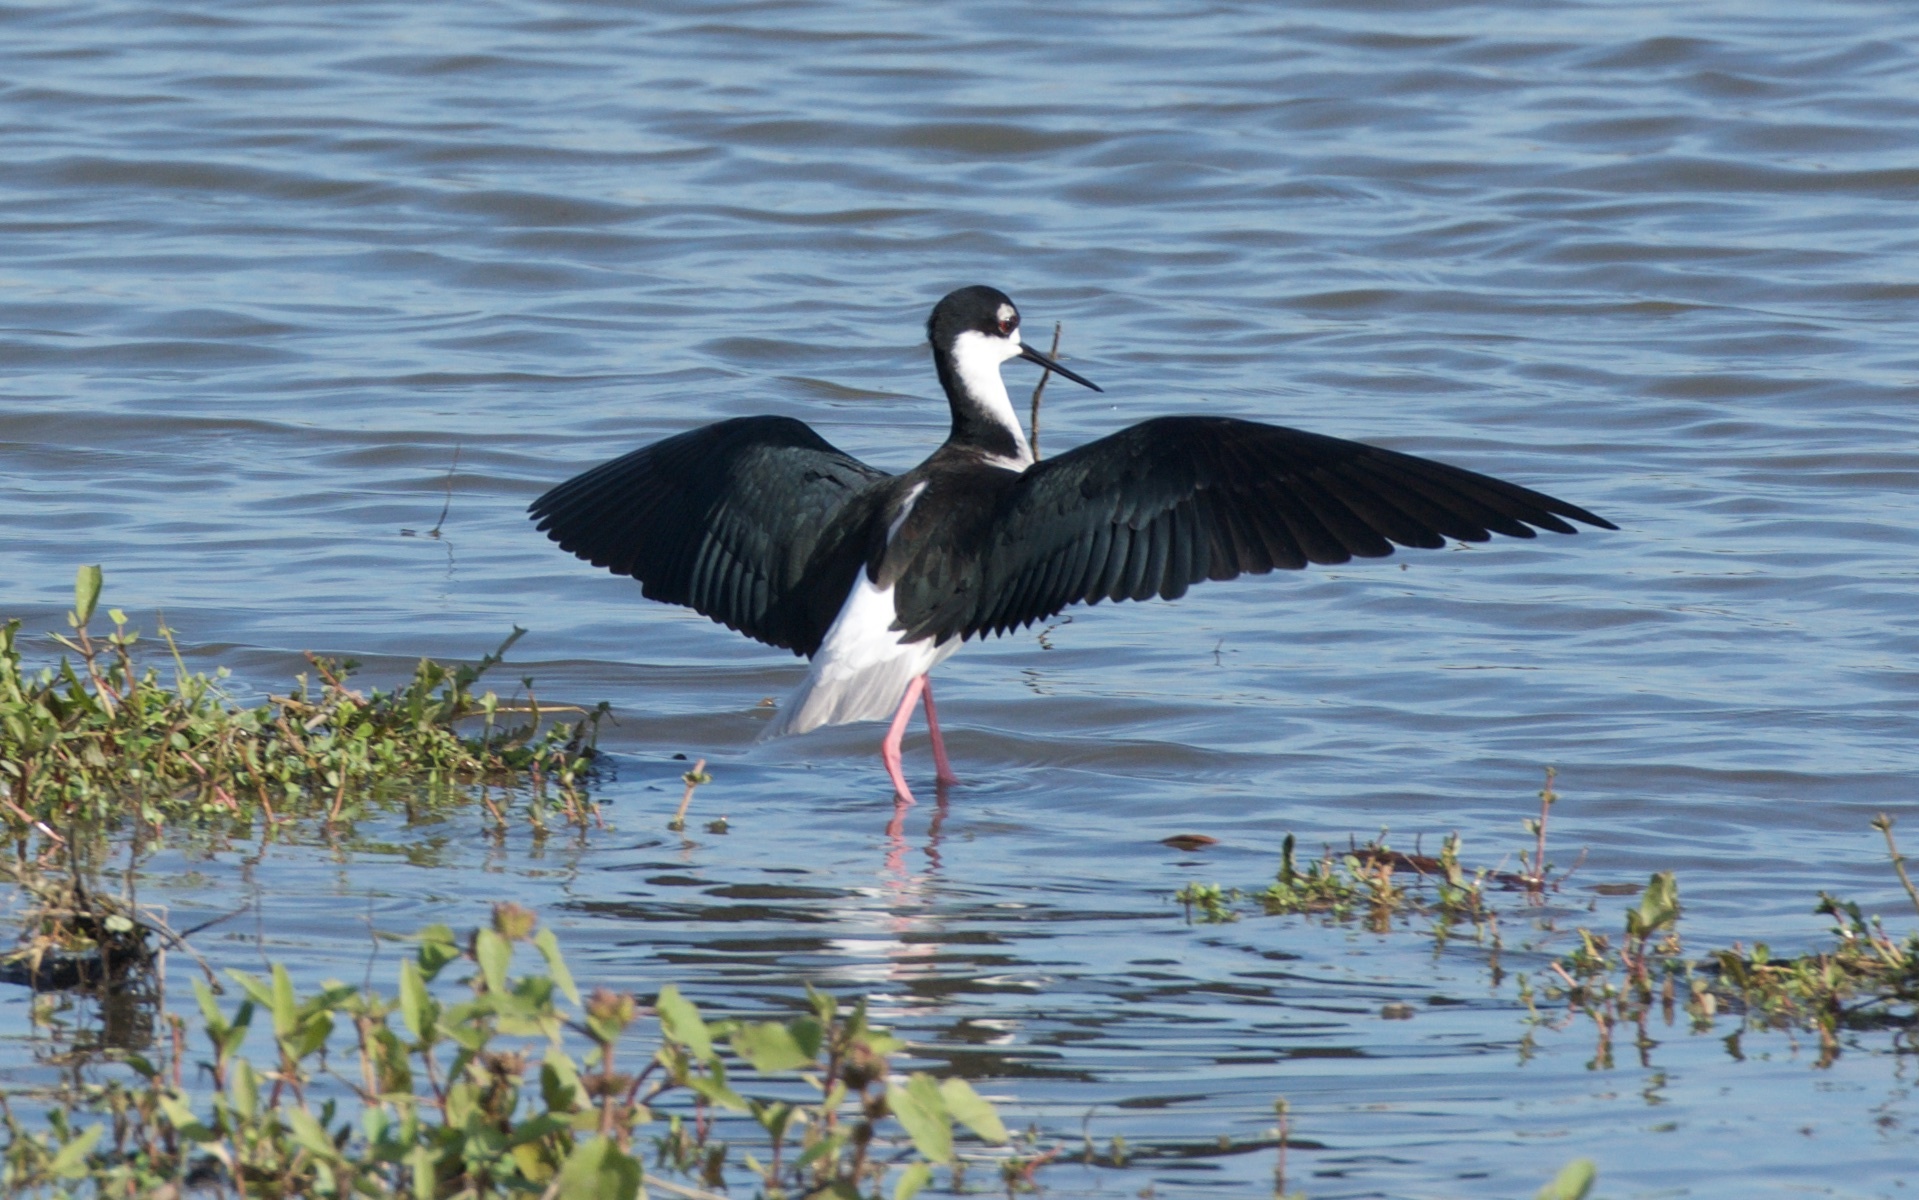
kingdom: Animalia
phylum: Chordata
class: Aves
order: Charadriiformes
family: Recurvirostridae
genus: Himantopus
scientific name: Himantopus mexicanus
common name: Black-necked stilt
